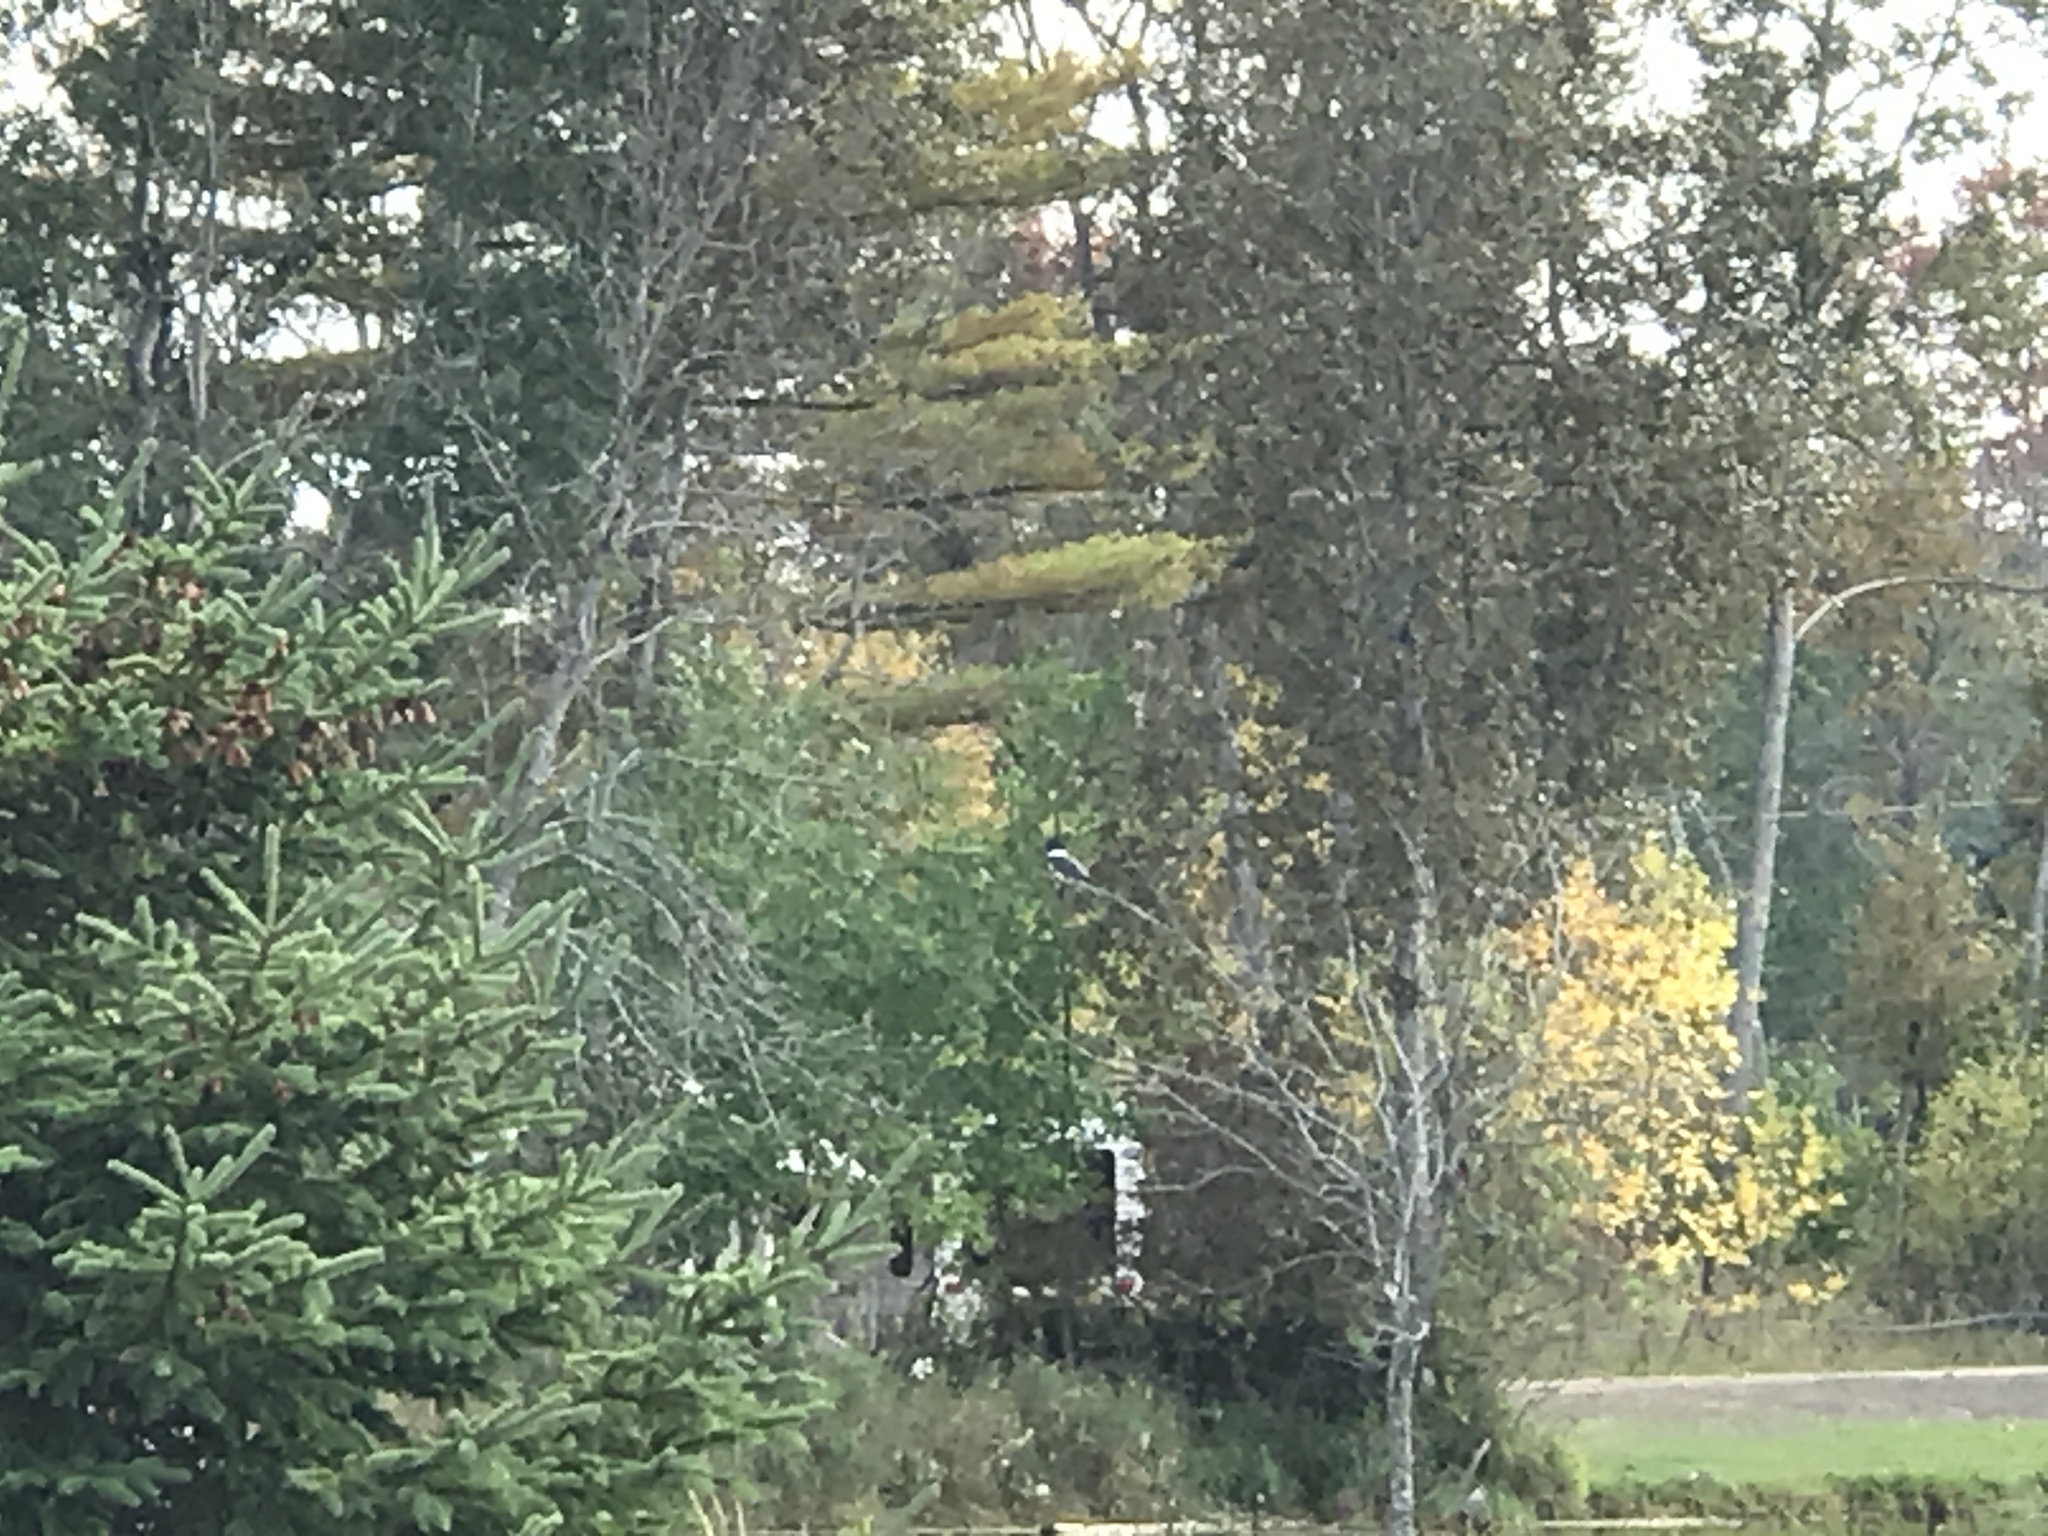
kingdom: Animalia
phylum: Chordata
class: Aves
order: Coraciiformes
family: Alcedinidae
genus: Megaceryle
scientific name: Megaceryle alcyon
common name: Belted kingfisher
